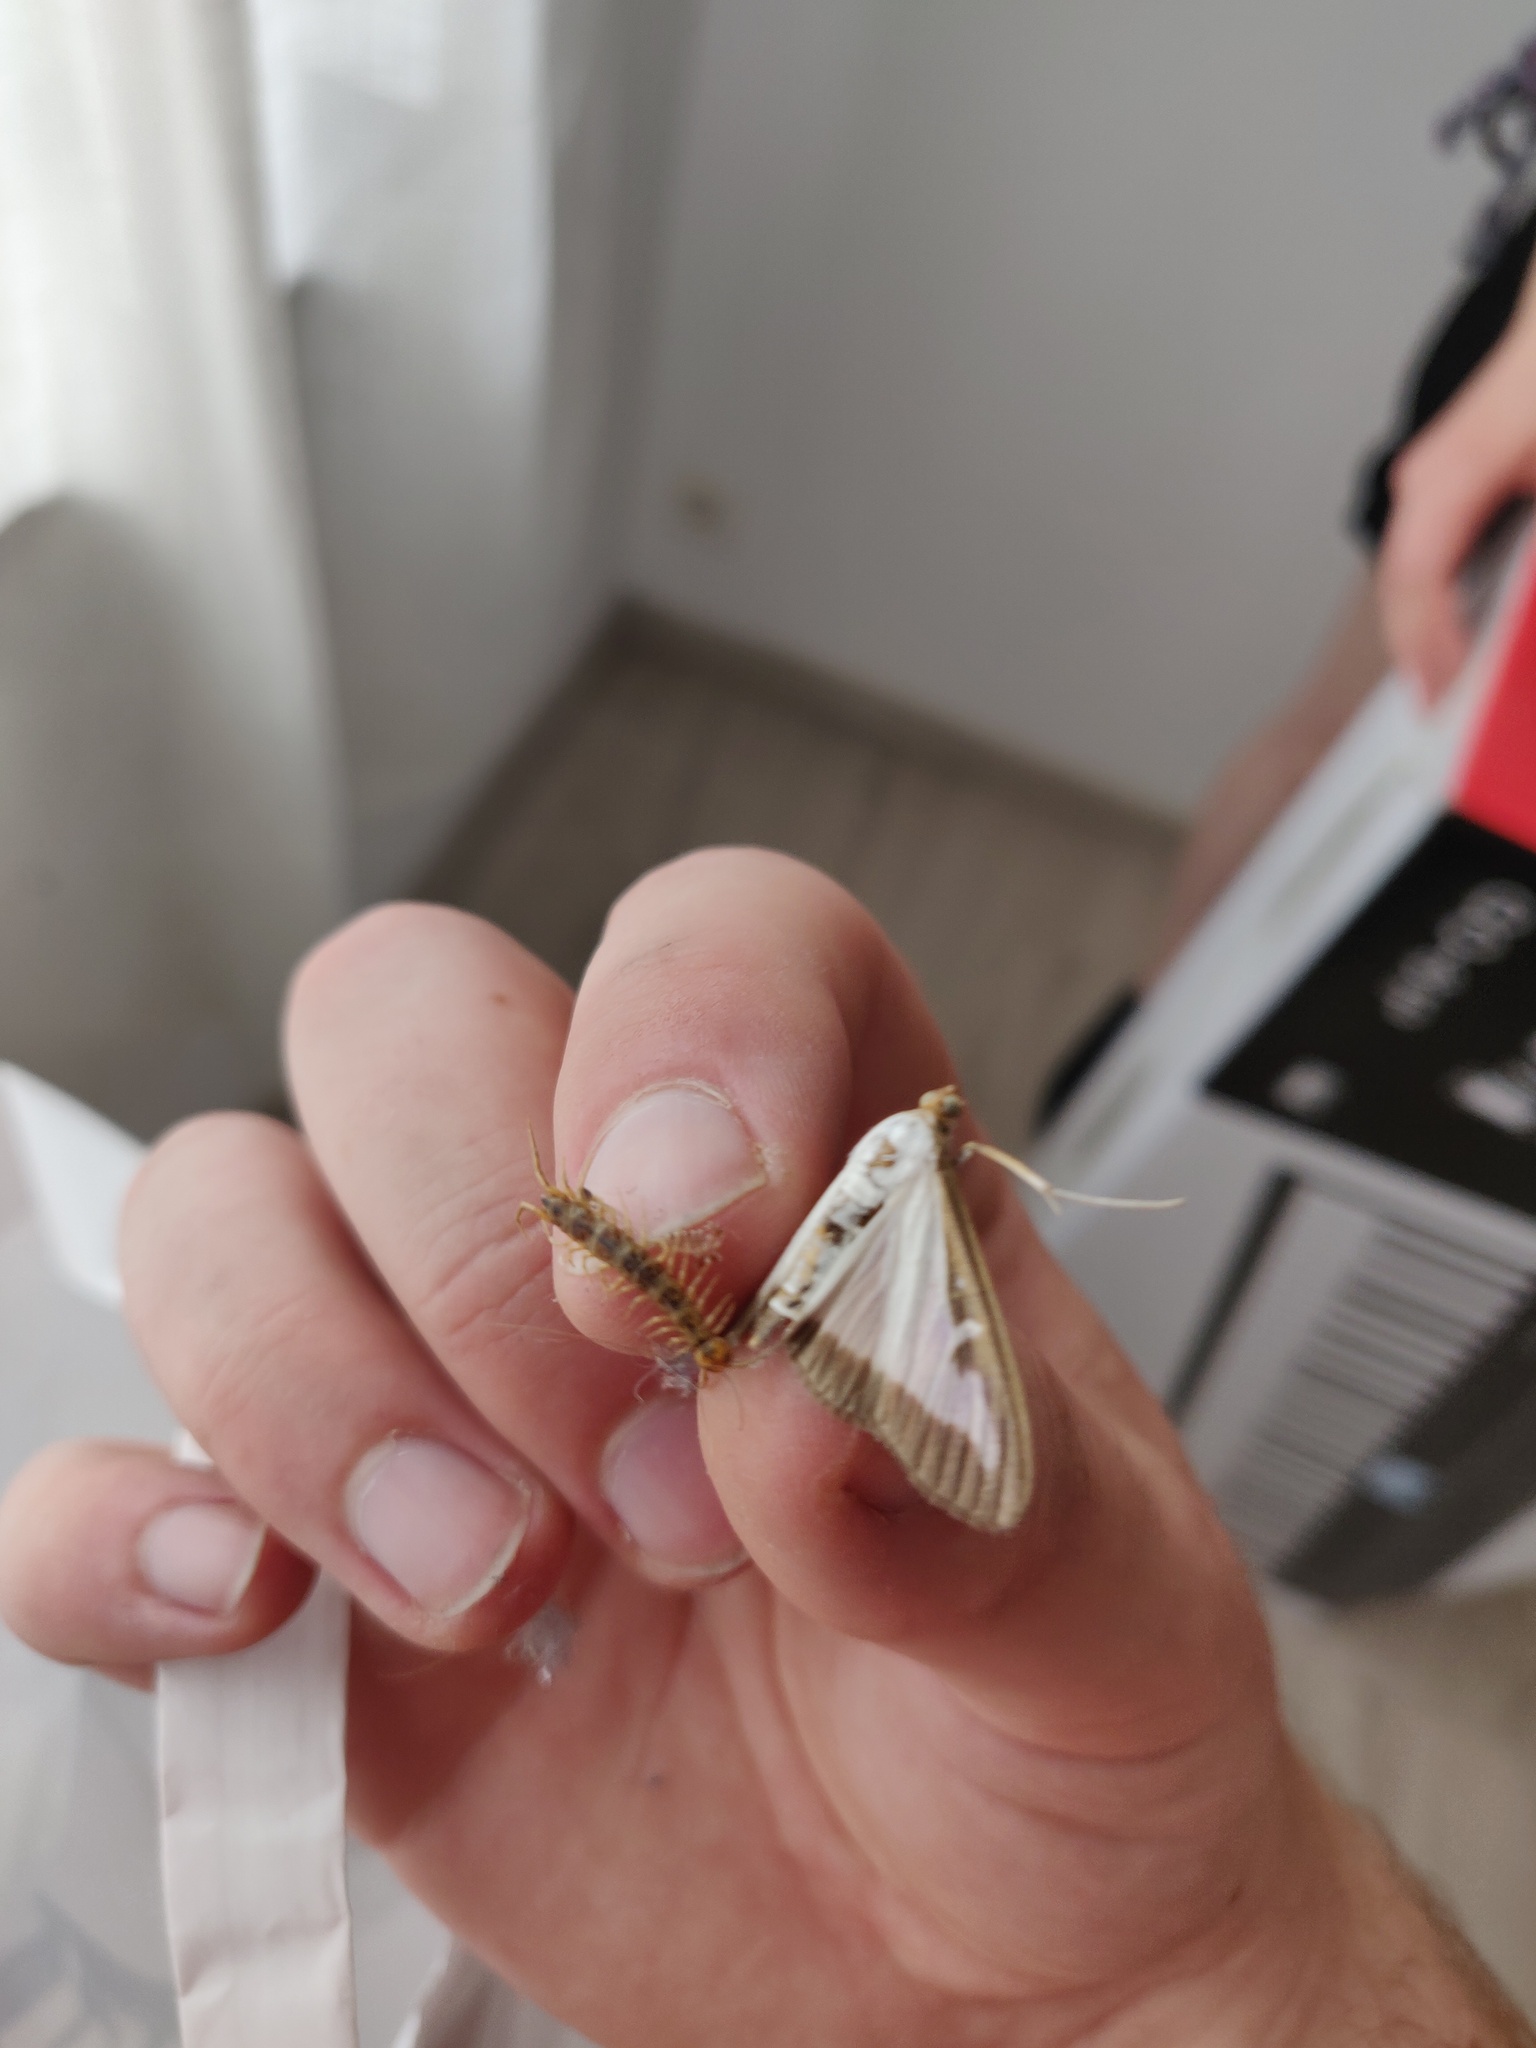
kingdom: Animalia
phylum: Arthropoda
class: Insecta
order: Lepidoptera
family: Crambidae
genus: Cydalima
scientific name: Cydalima perspectalis
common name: Box tree moth
